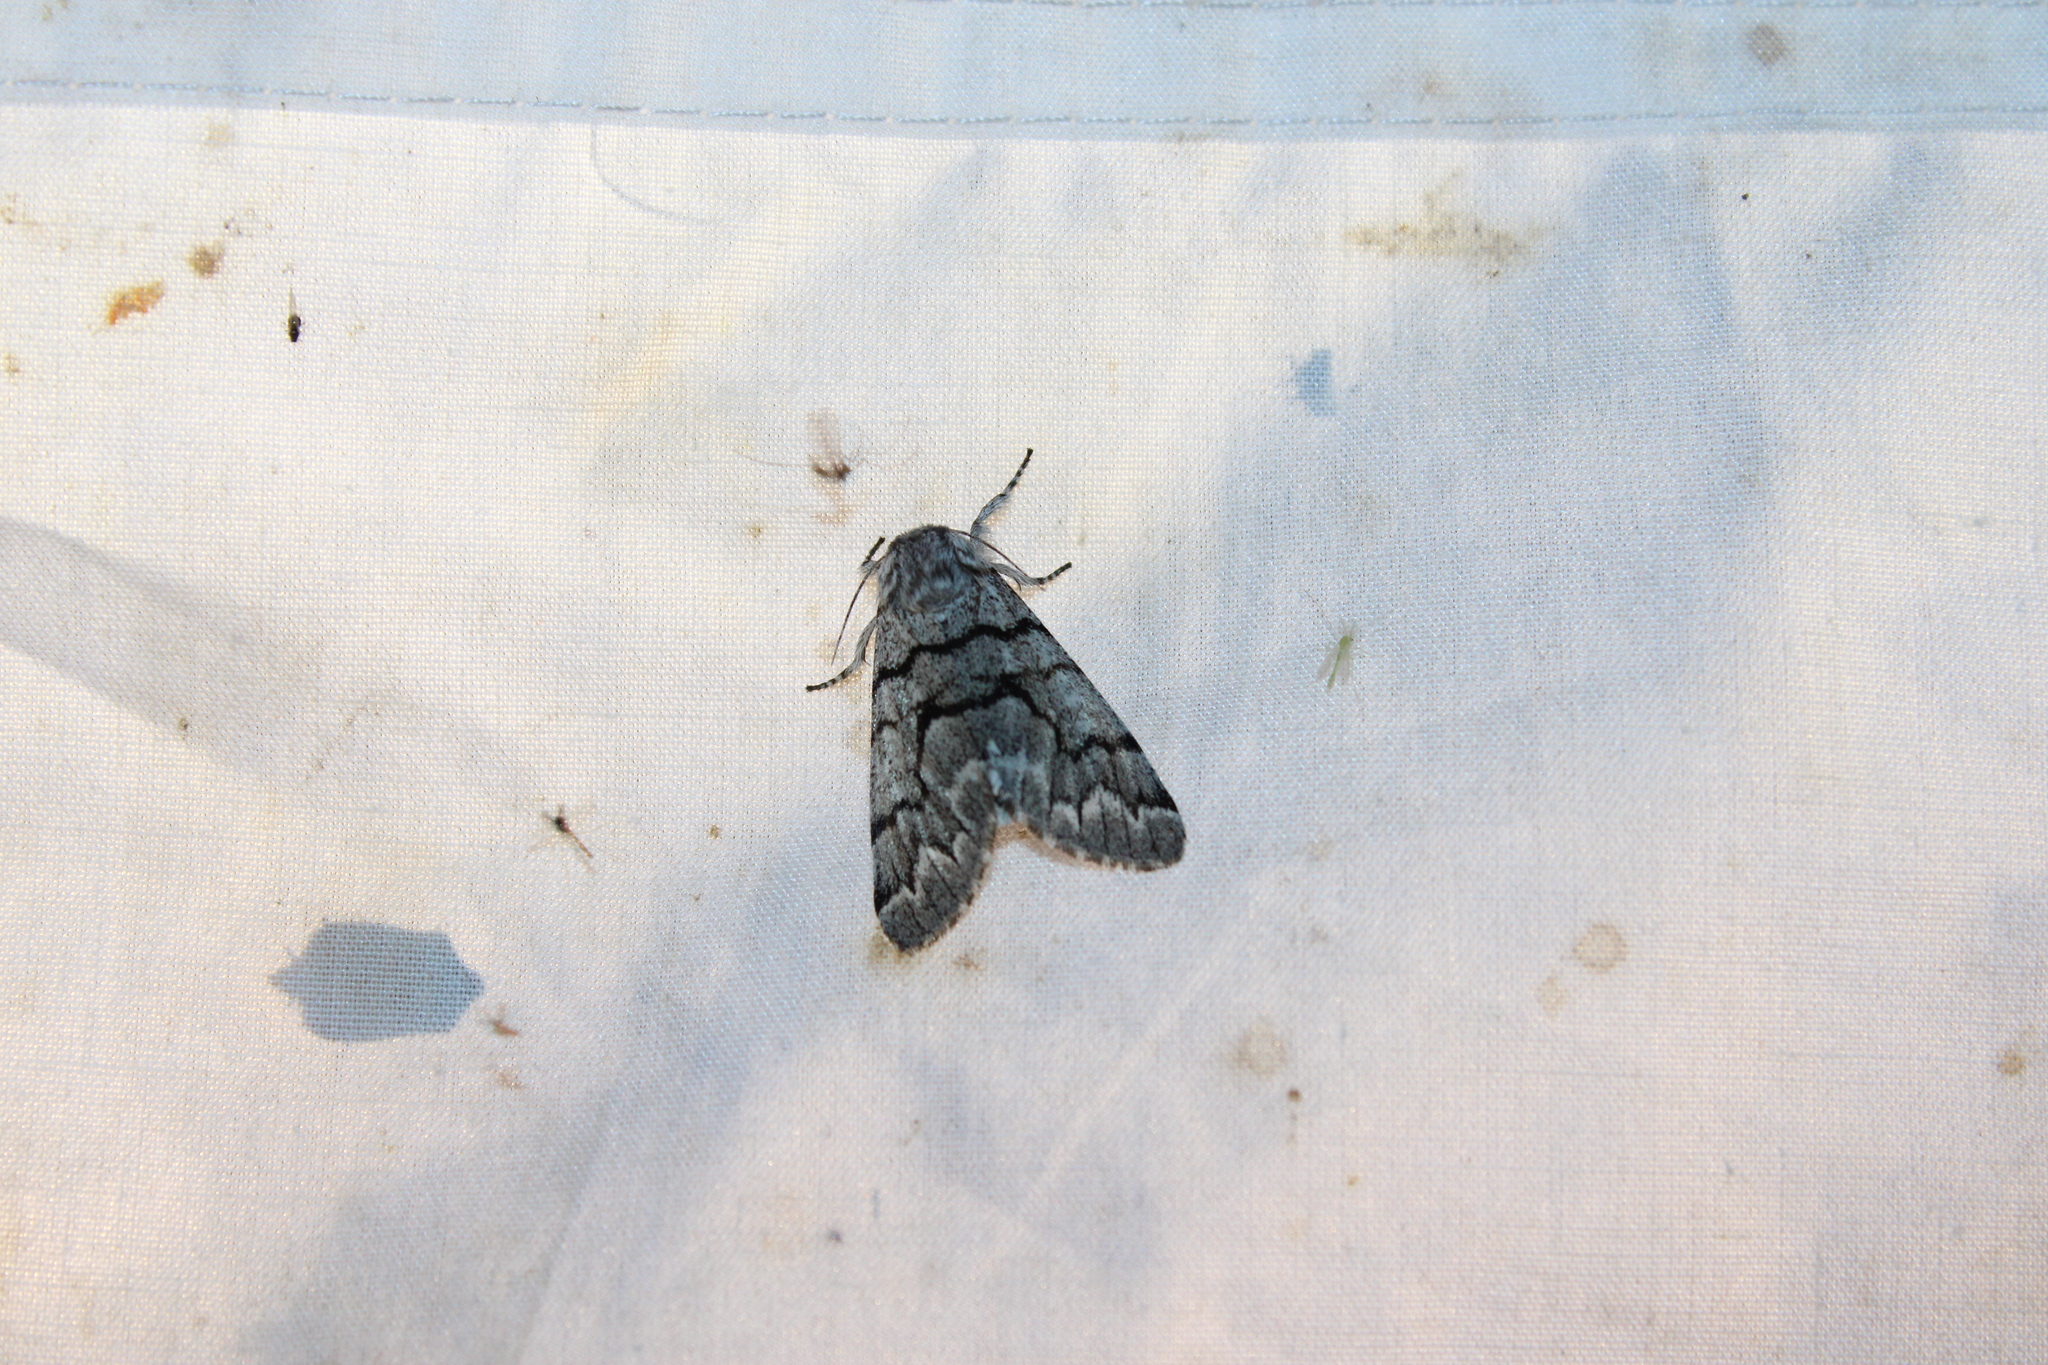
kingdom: Animalia
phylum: Arthropoda
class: Insecta
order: Lepidoptera
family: Noctuidae
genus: Panthea
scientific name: Panthea furcilla
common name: Eastern panthea moth
